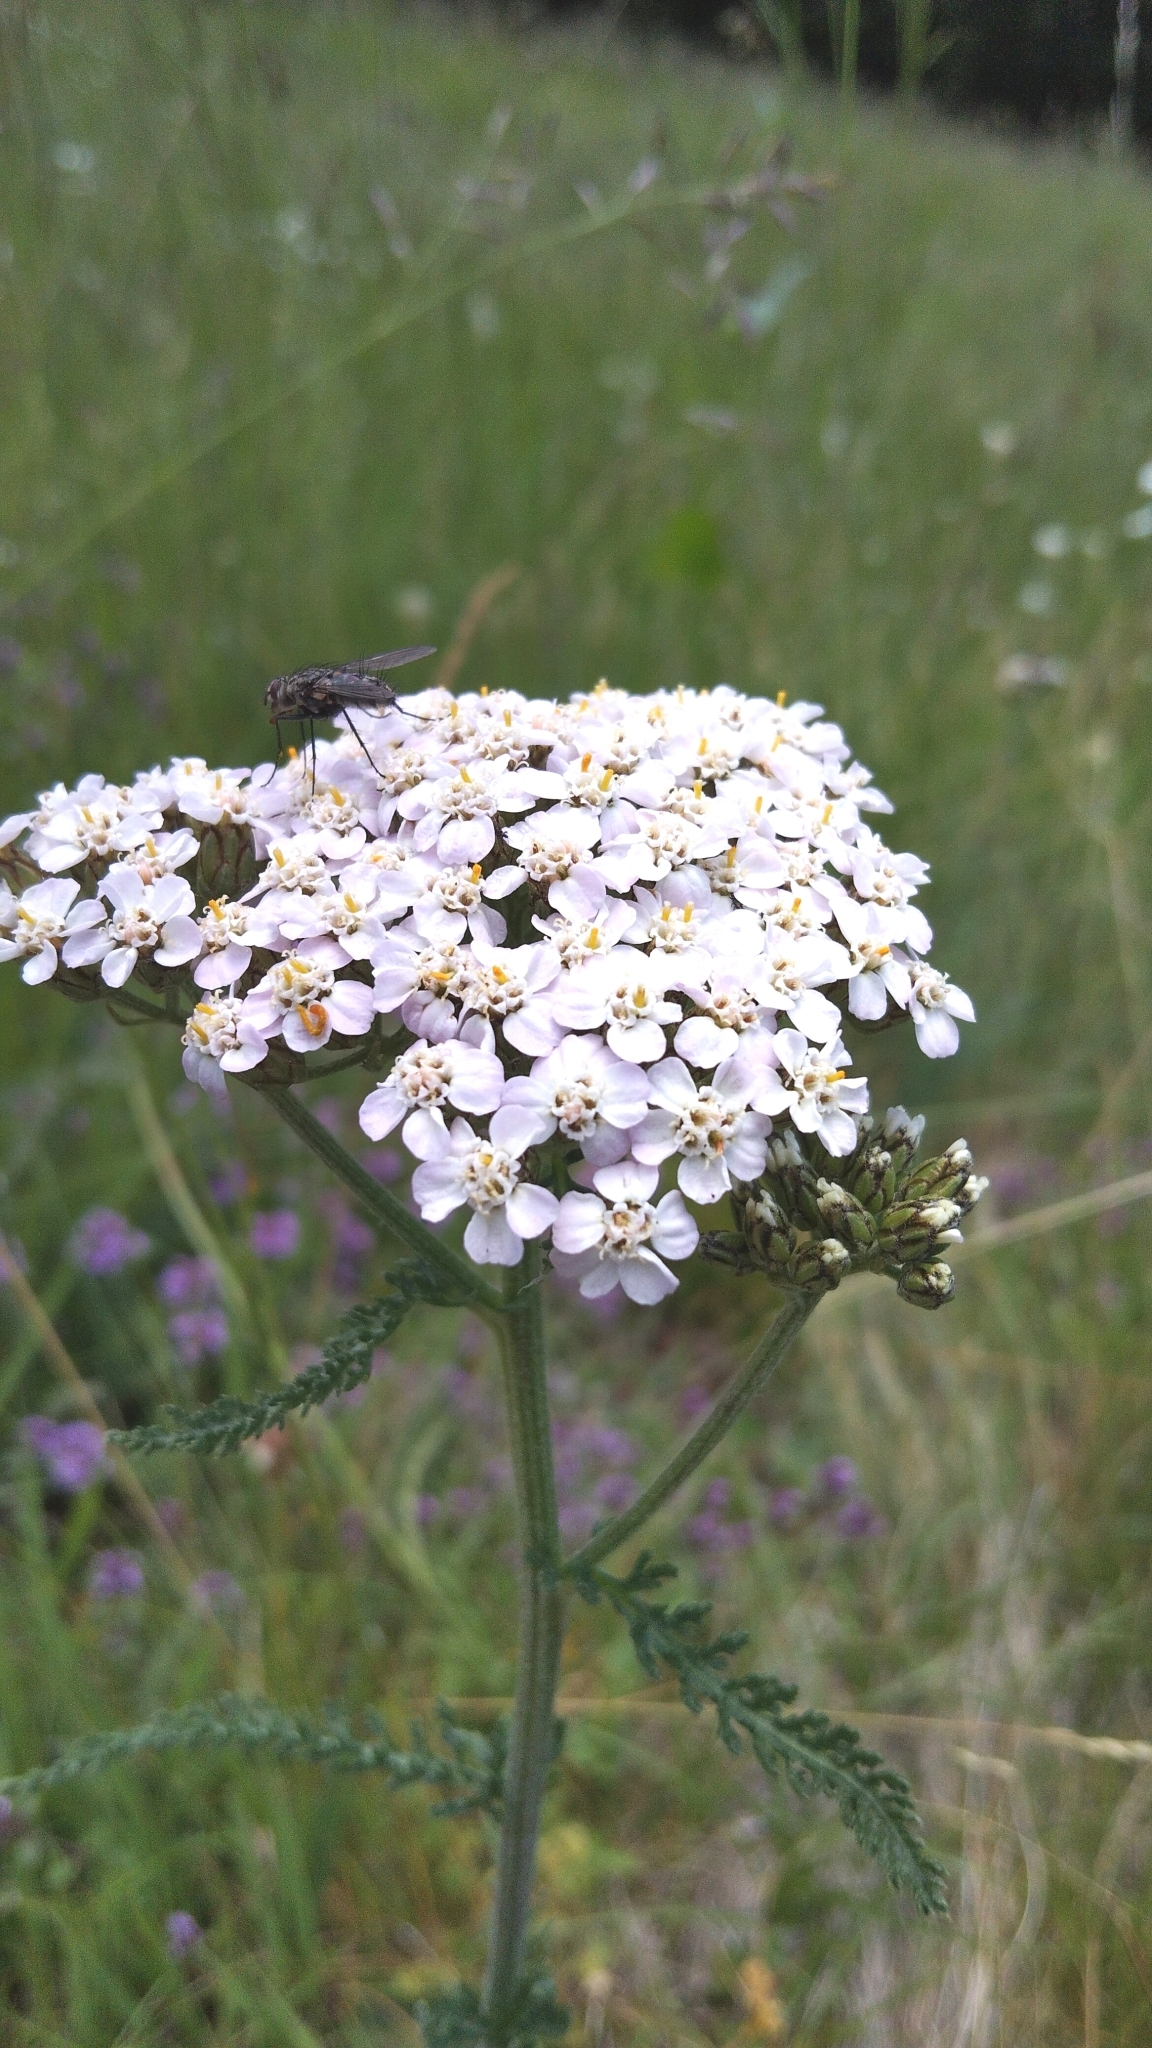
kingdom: Plantae
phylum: Tracheophyta
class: Magnoliopsida
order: Asterales
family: Asteraceae
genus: Achillea
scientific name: Achillea millefolium
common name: Yarrow
